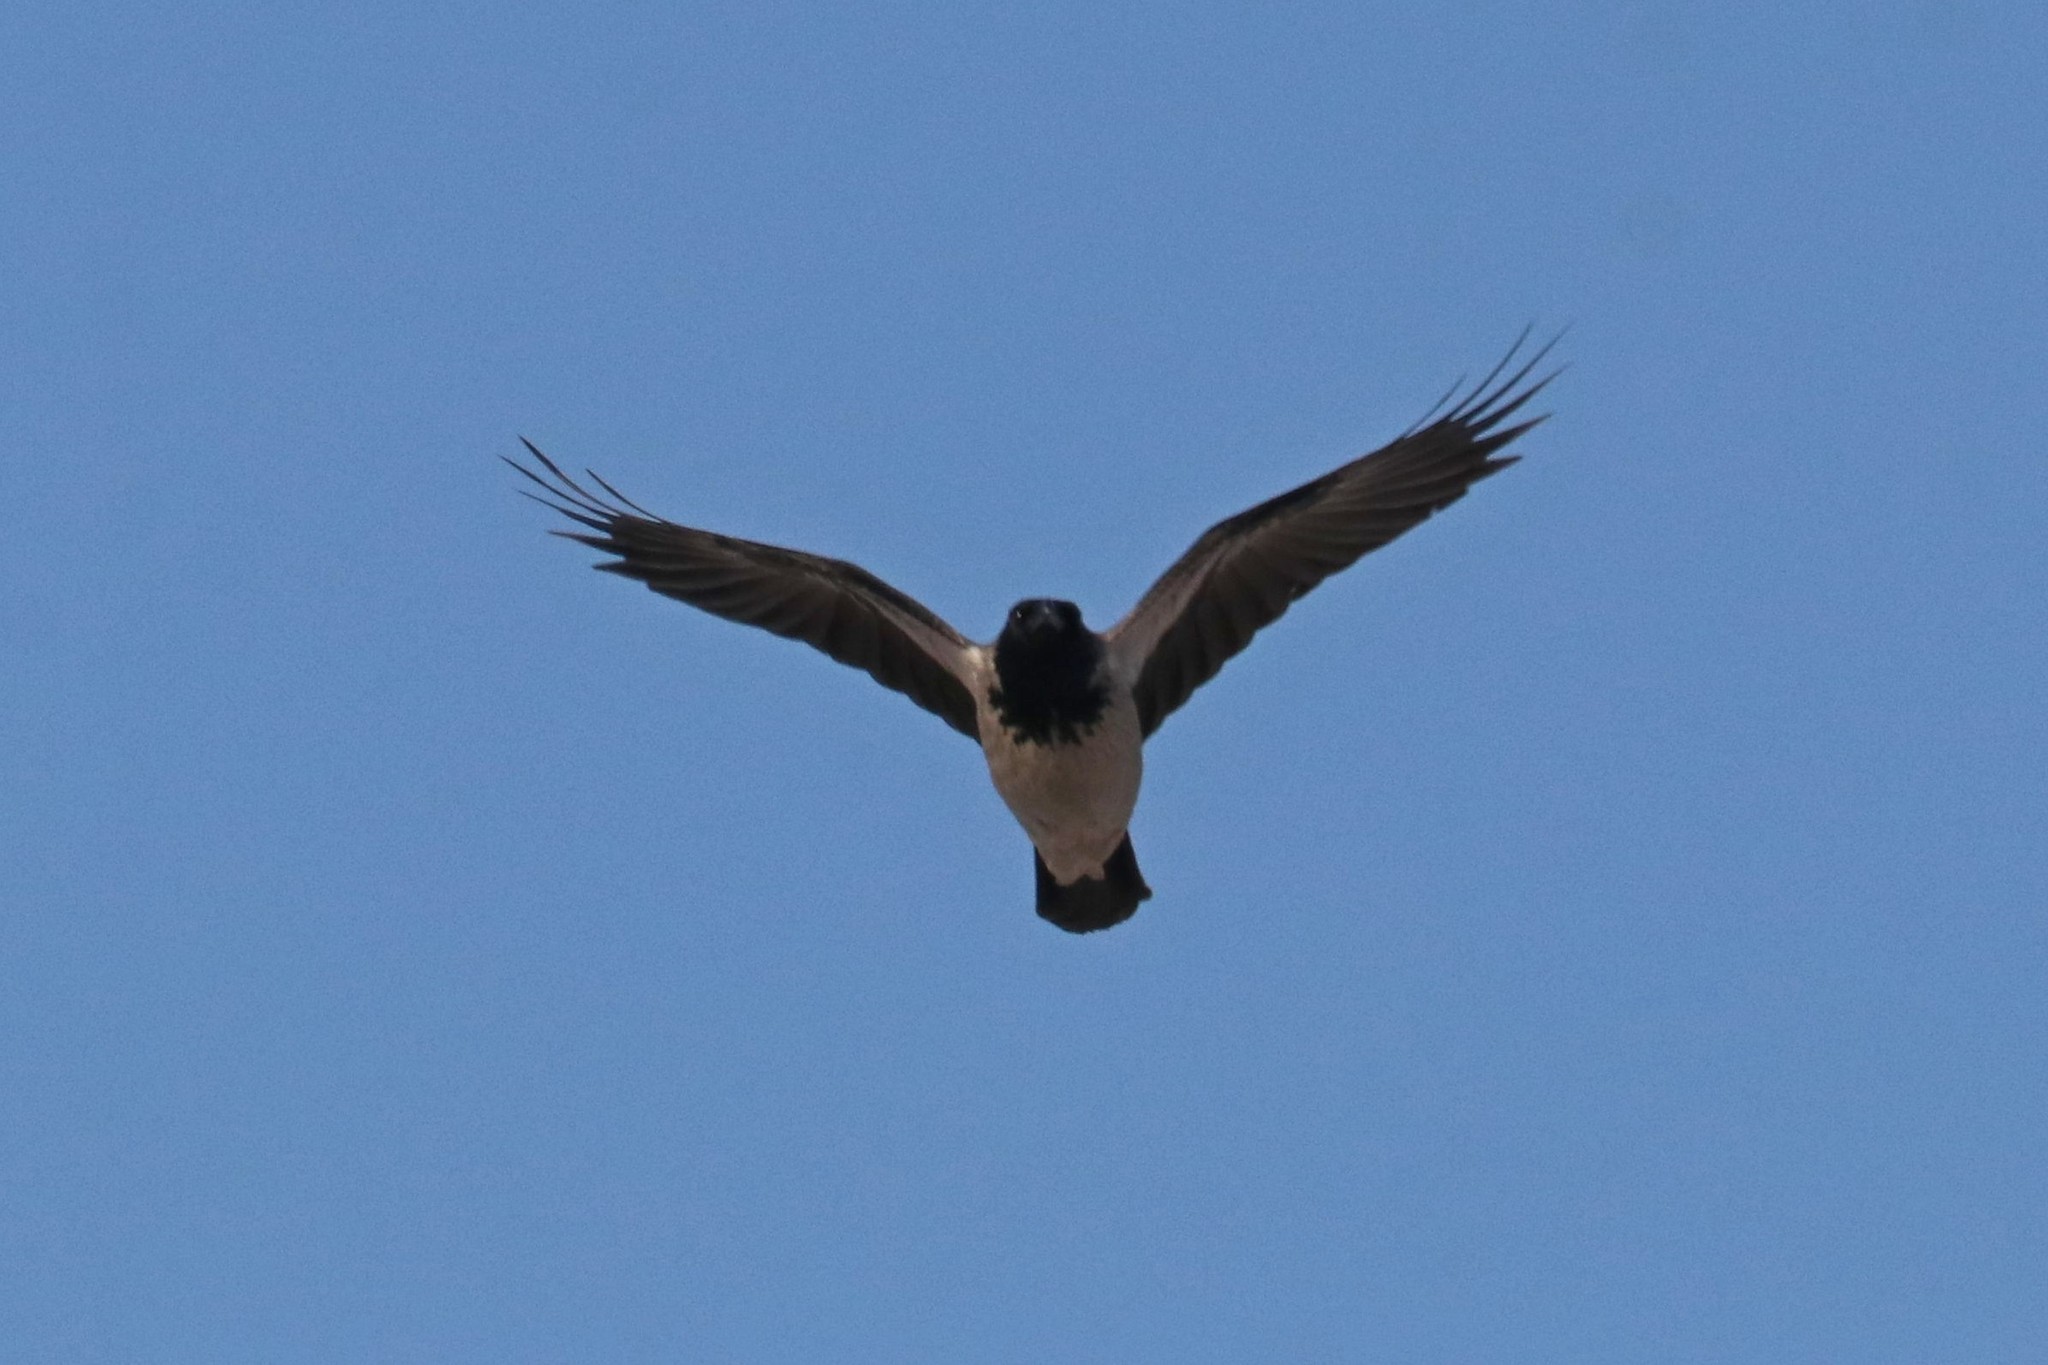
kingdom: Animalia
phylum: Chordata
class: Aves
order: Passeriformes
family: Corvidae
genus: Corvus
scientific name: Corvus cornix
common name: Hooded crow
